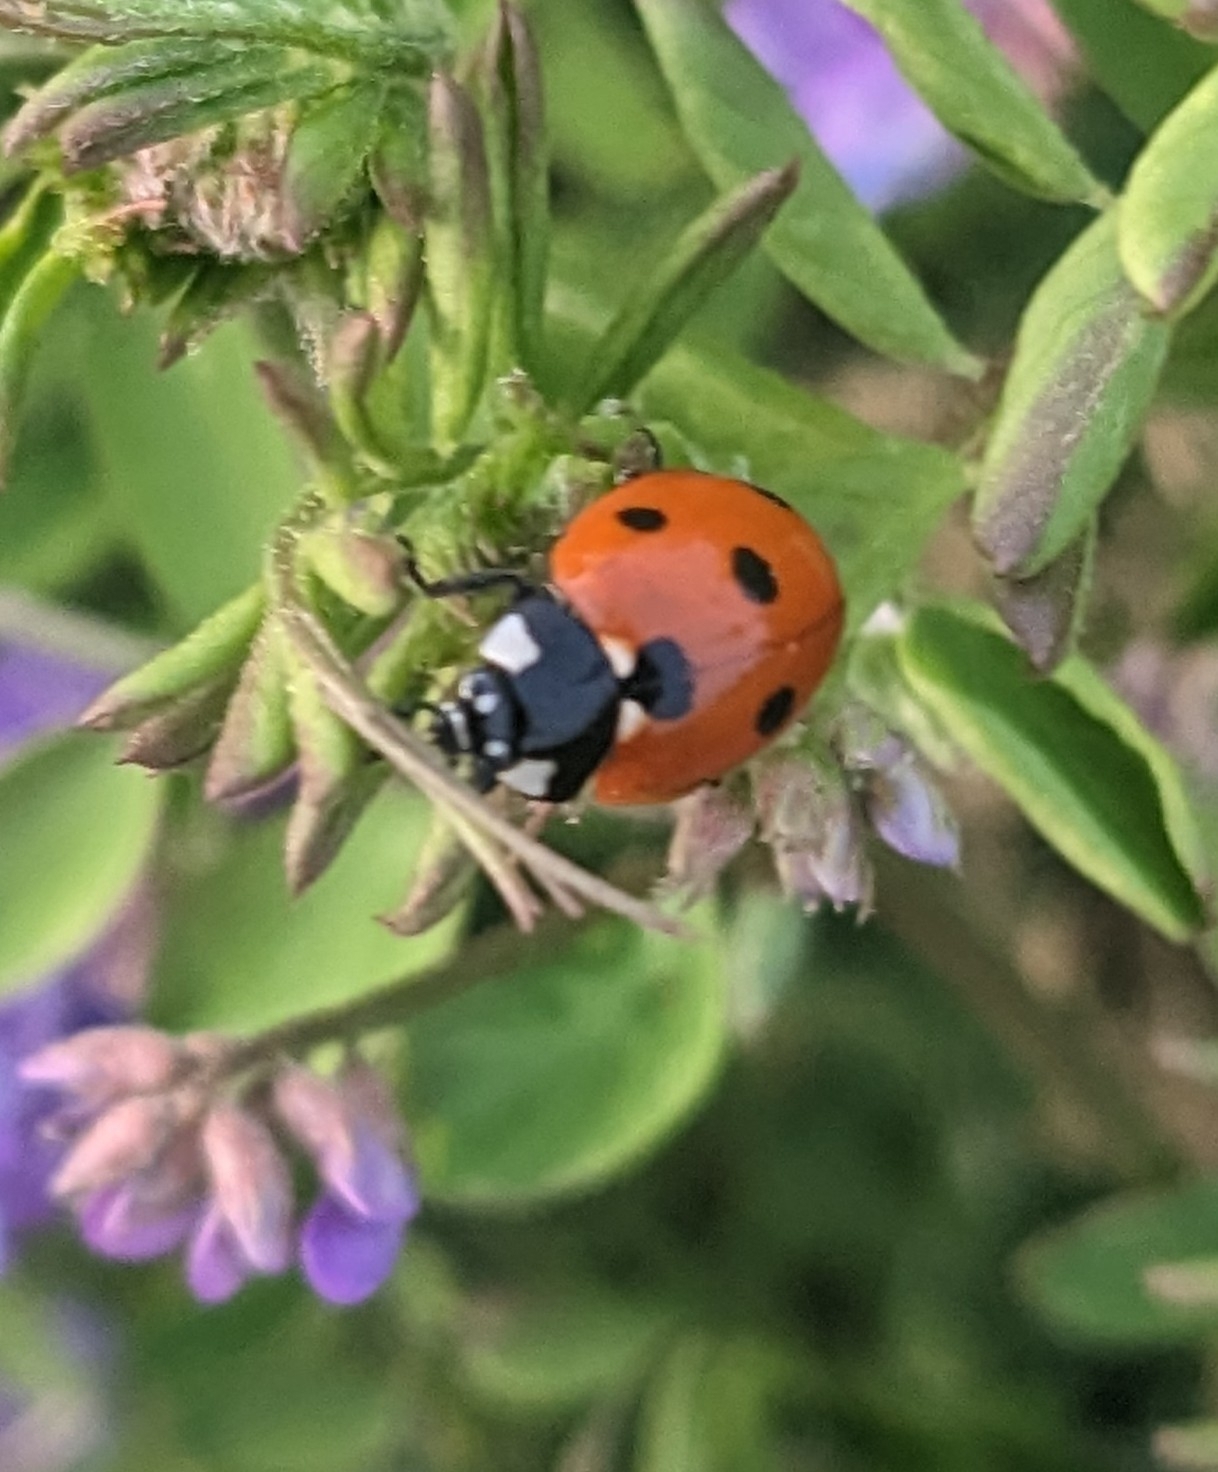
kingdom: Animalia
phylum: Arthropoda
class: Insecta
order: Coleoptera
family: Coccinellidae
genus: Coccinella
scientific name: Coccinella septempunctata
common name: Sevenspotted lady beetle
